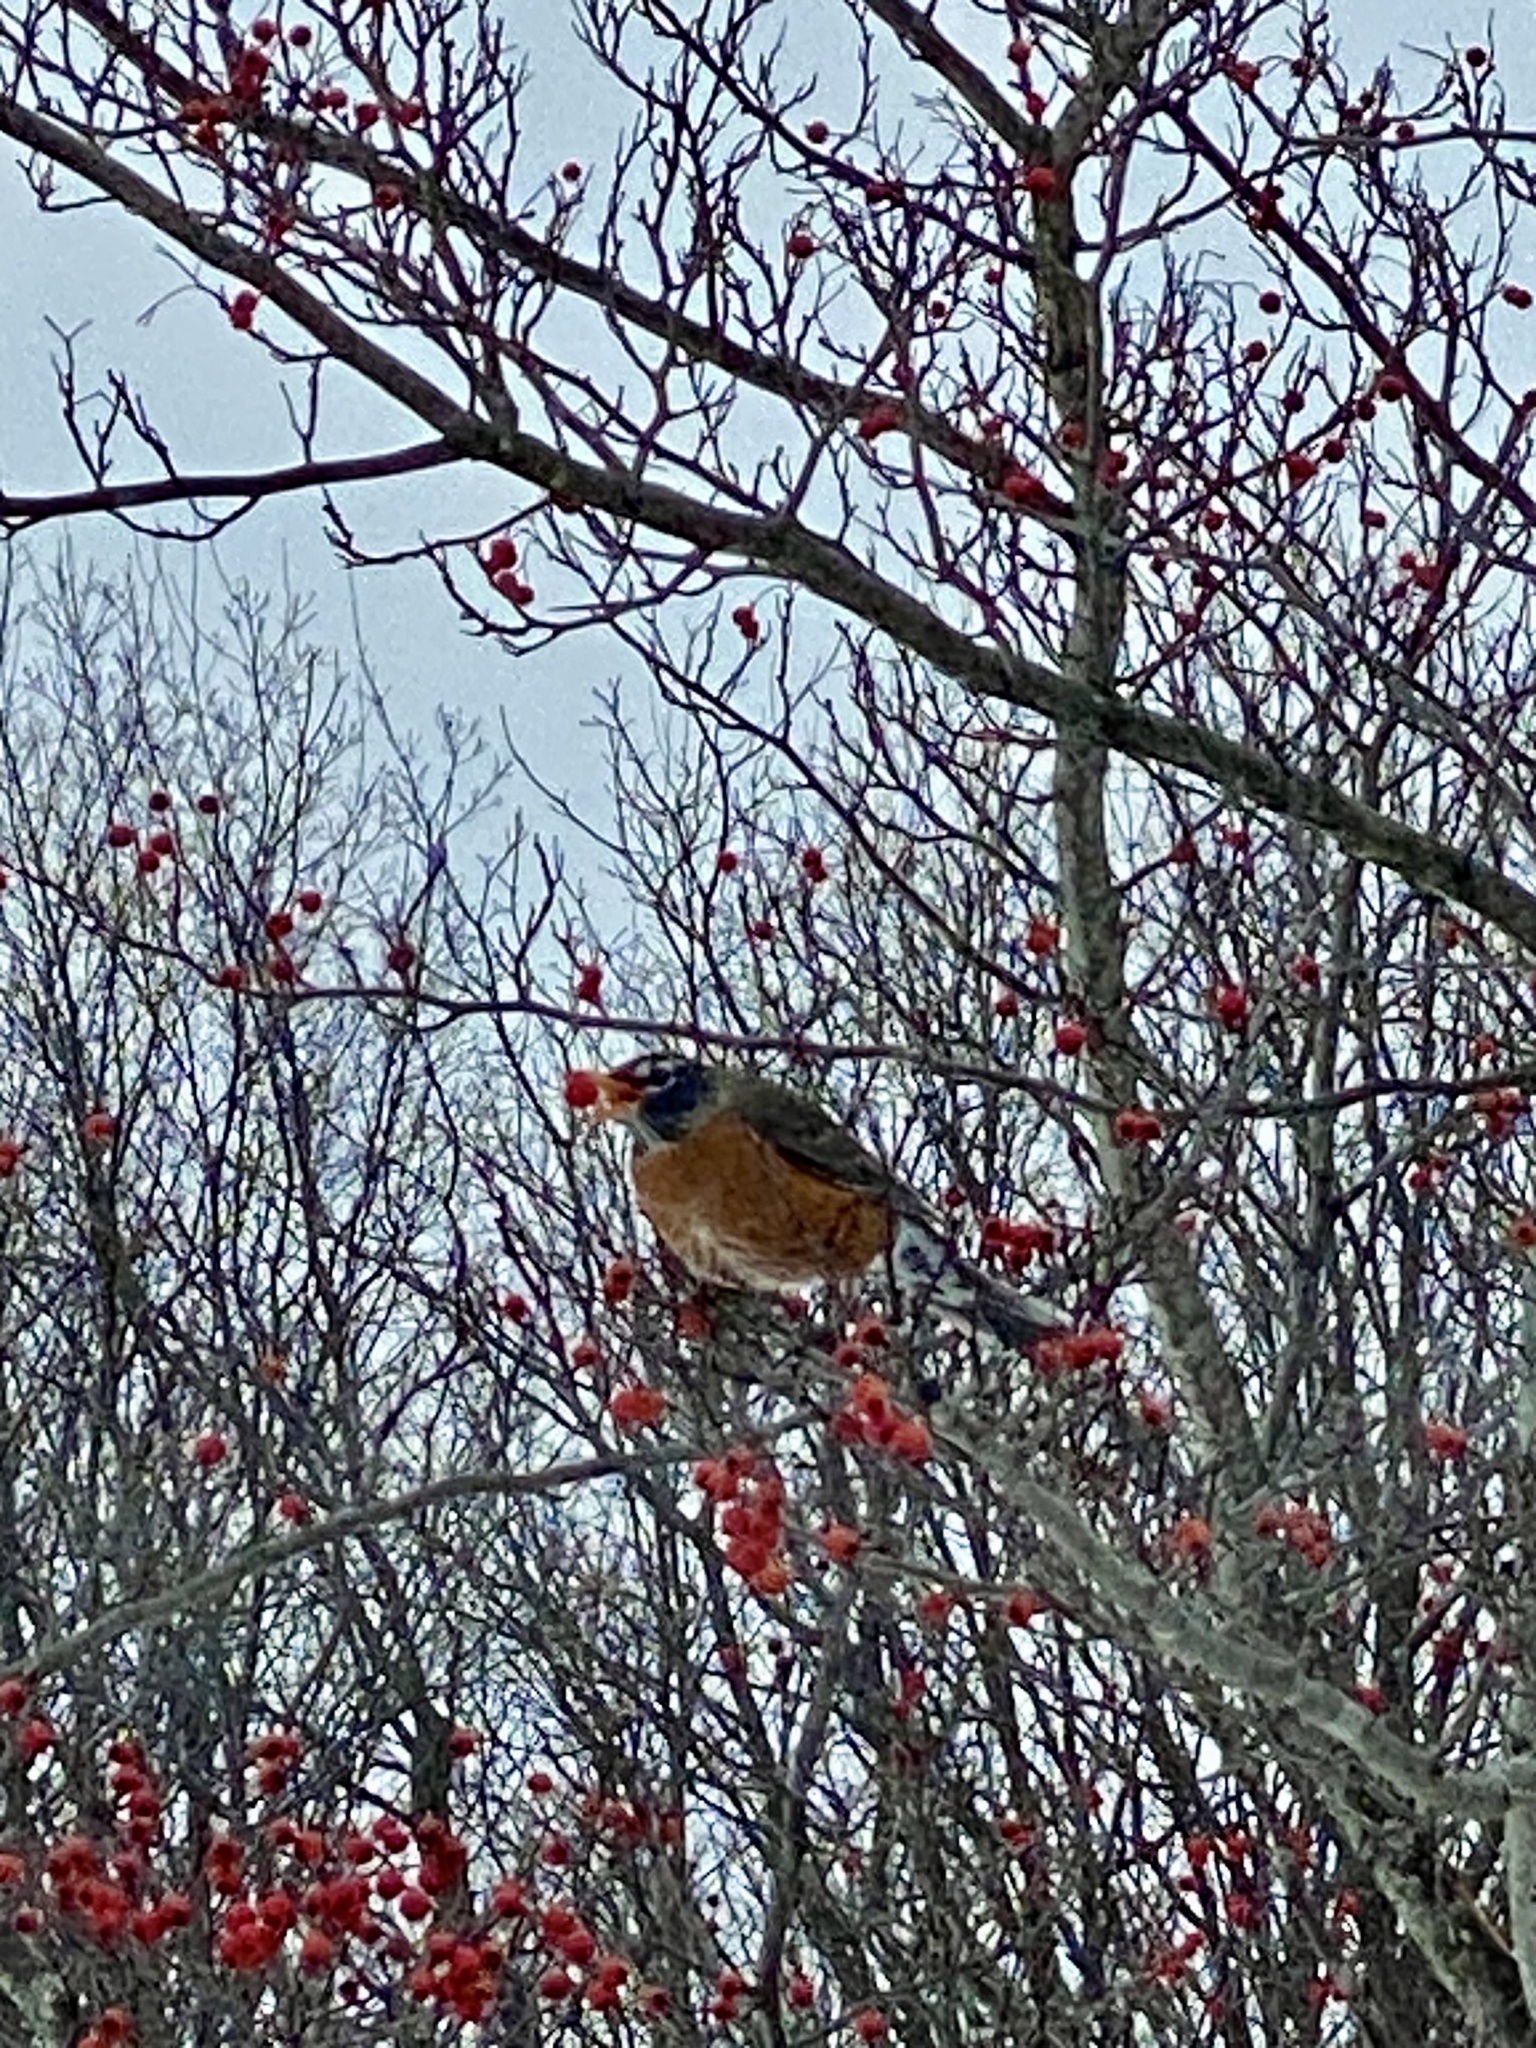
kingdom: Animalia
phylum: Chordata
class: Aves
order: Passeriformes
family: Turdidae
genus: Turdus
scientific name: Turdus migratorius
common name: American robin
